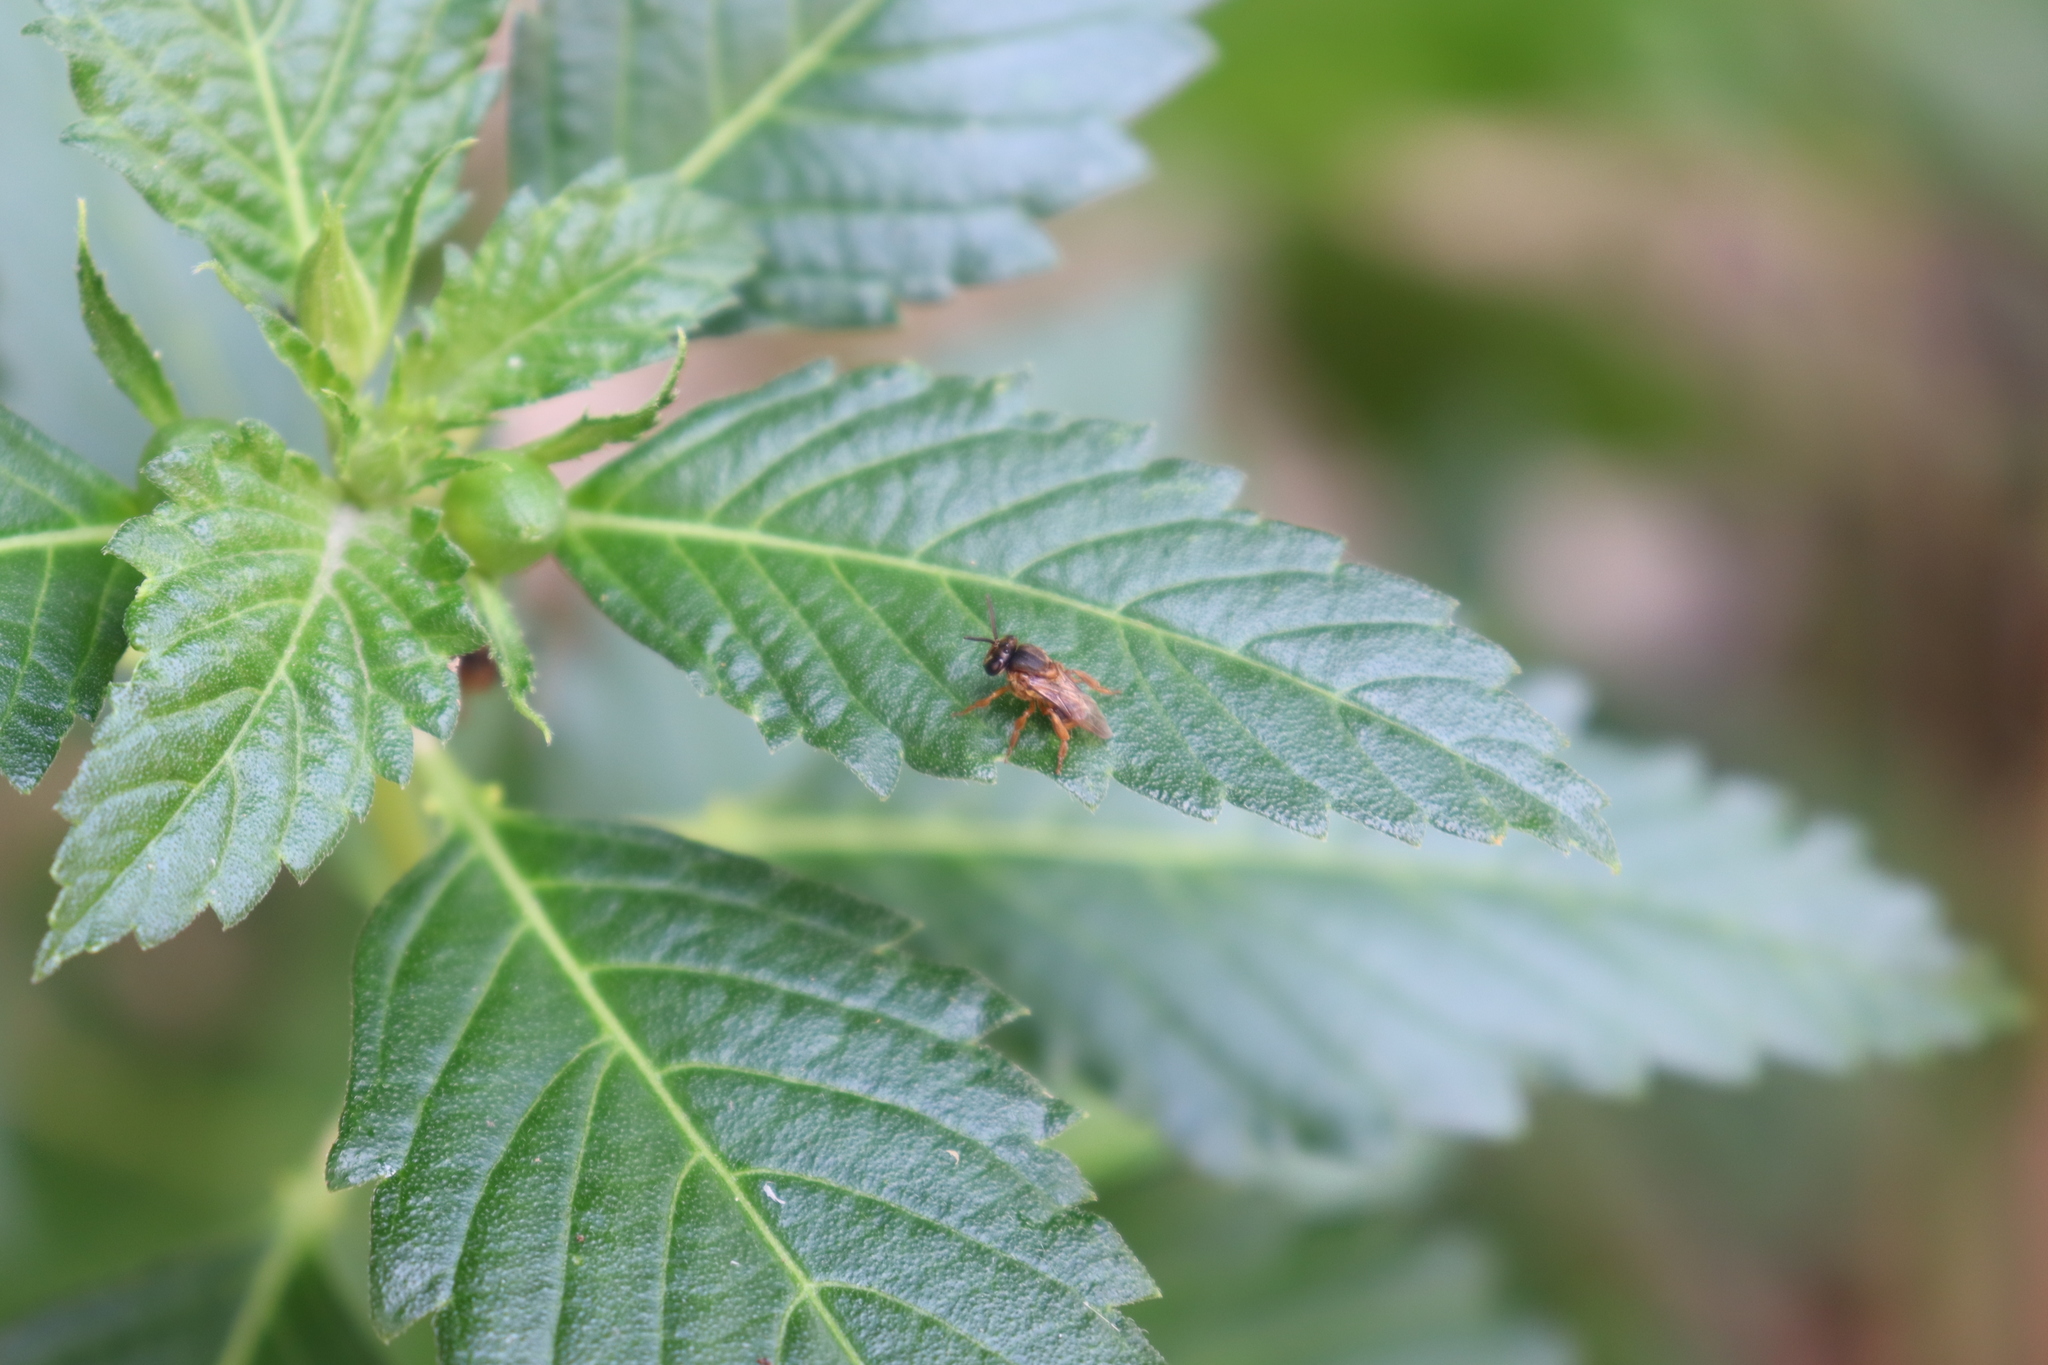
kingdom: Animalia
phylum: Arthropoda
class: Insecta
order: Hymenoptera
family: Apidae
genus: Scaptotrigona
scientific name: Scaptotrigona pectoralis
